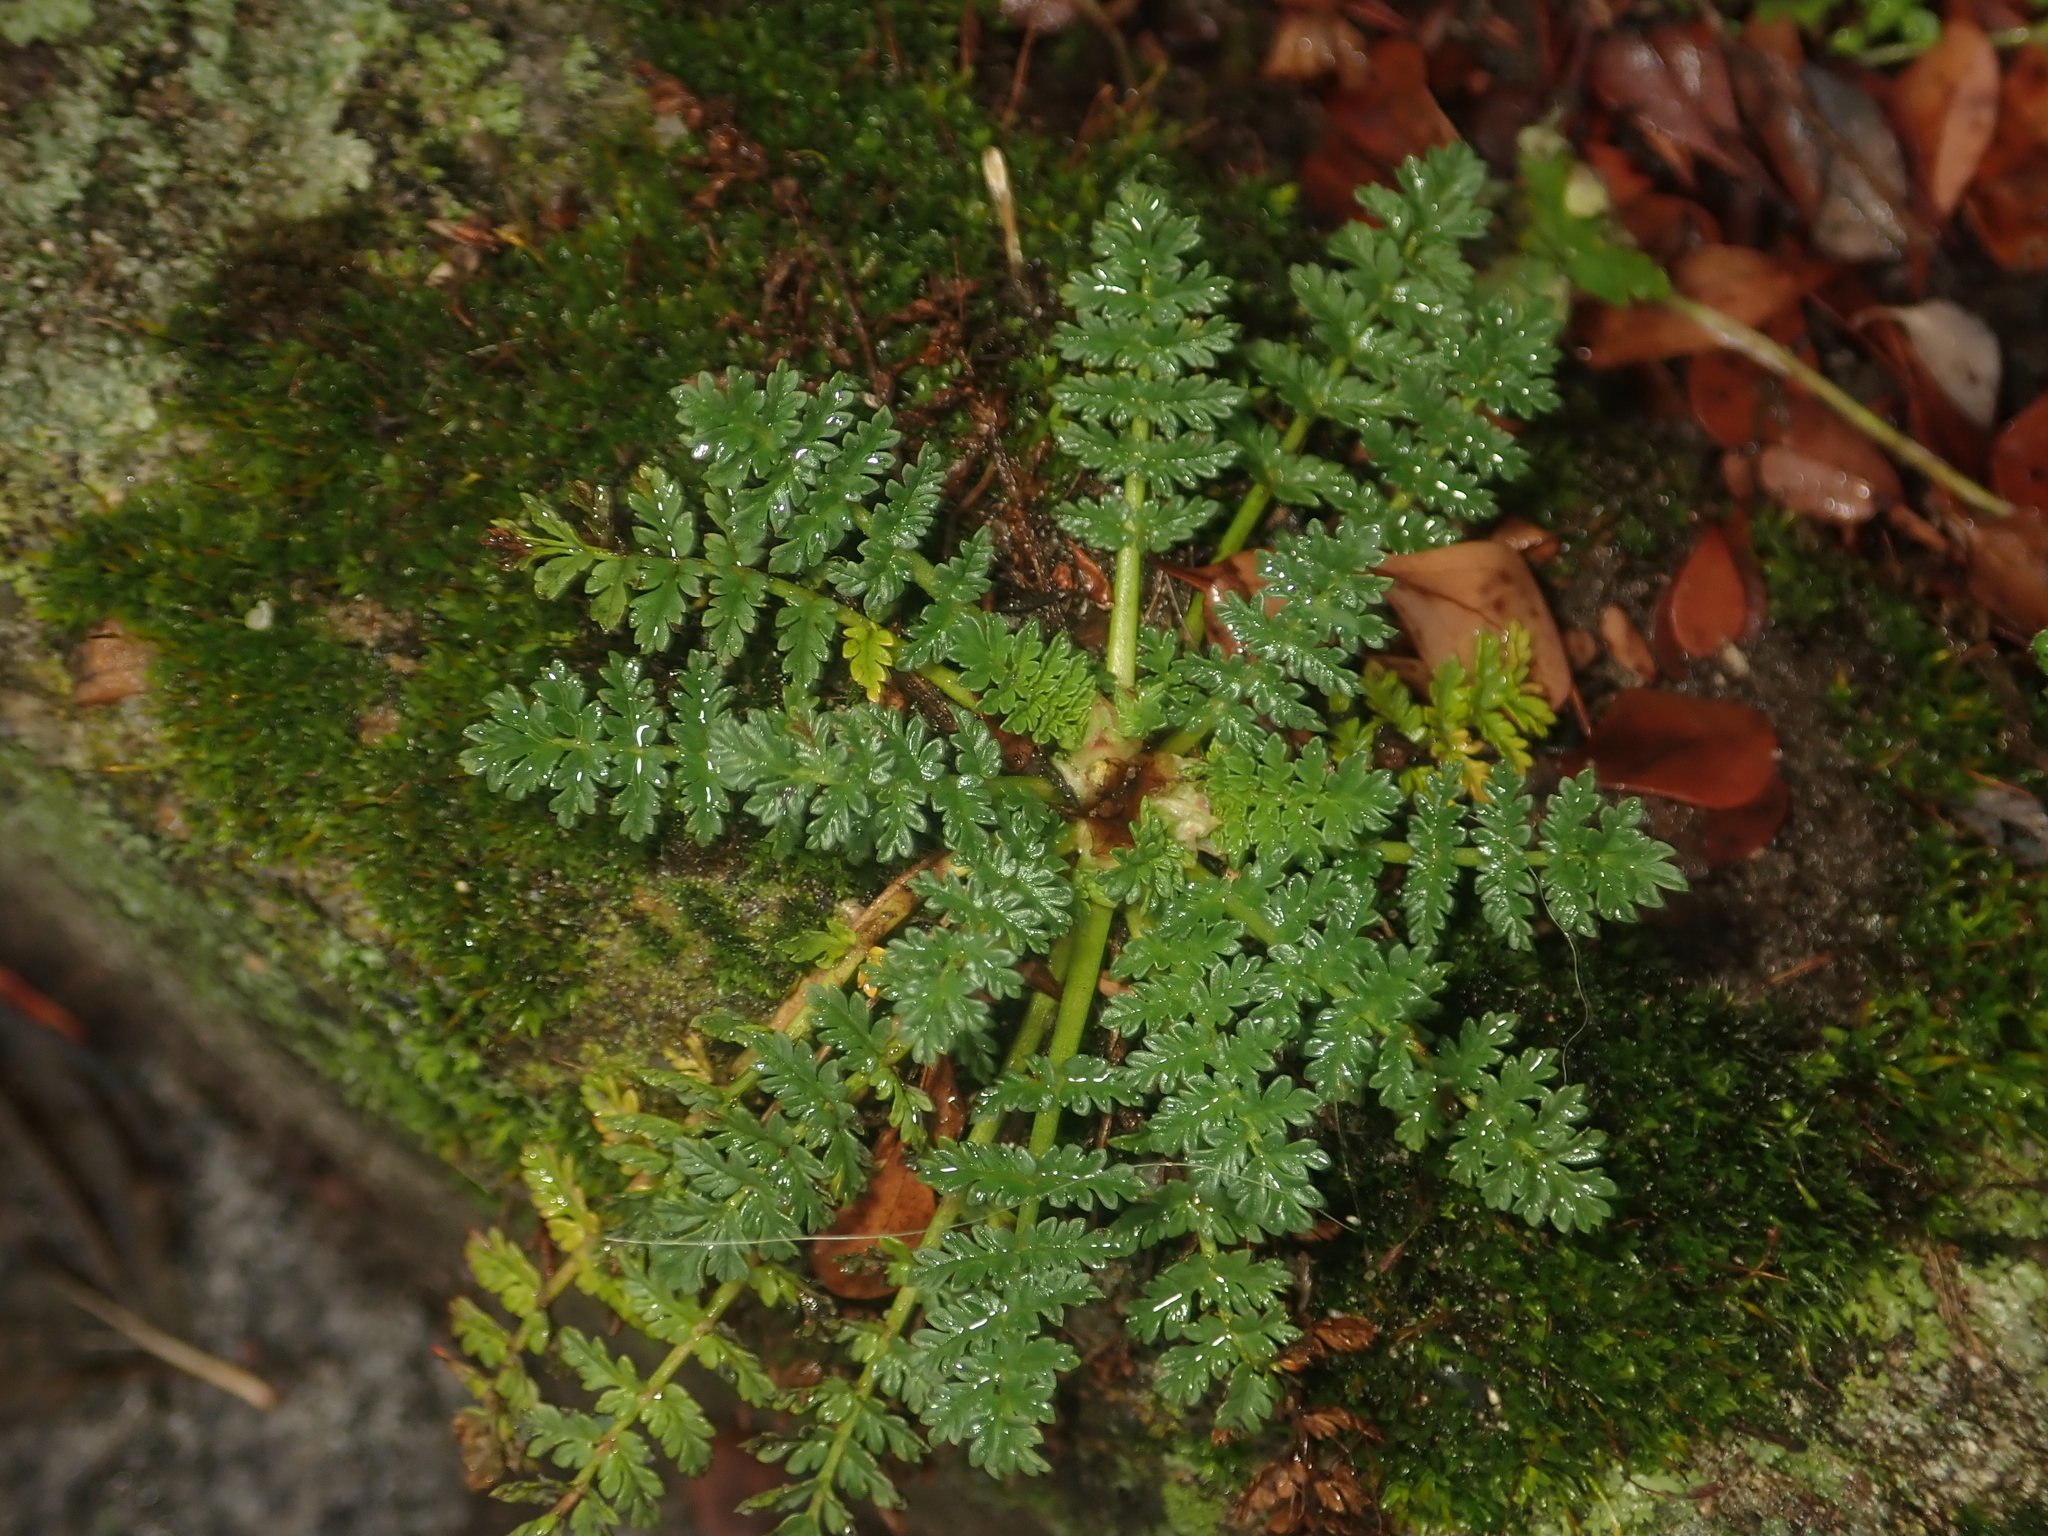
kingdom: Plantae
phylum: Tracheophyta
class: Magnoliopsida
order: Geraniales
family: Geraniaceae
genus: Erodium
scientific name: Erodium cicutarium
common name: Common stork's-bill
